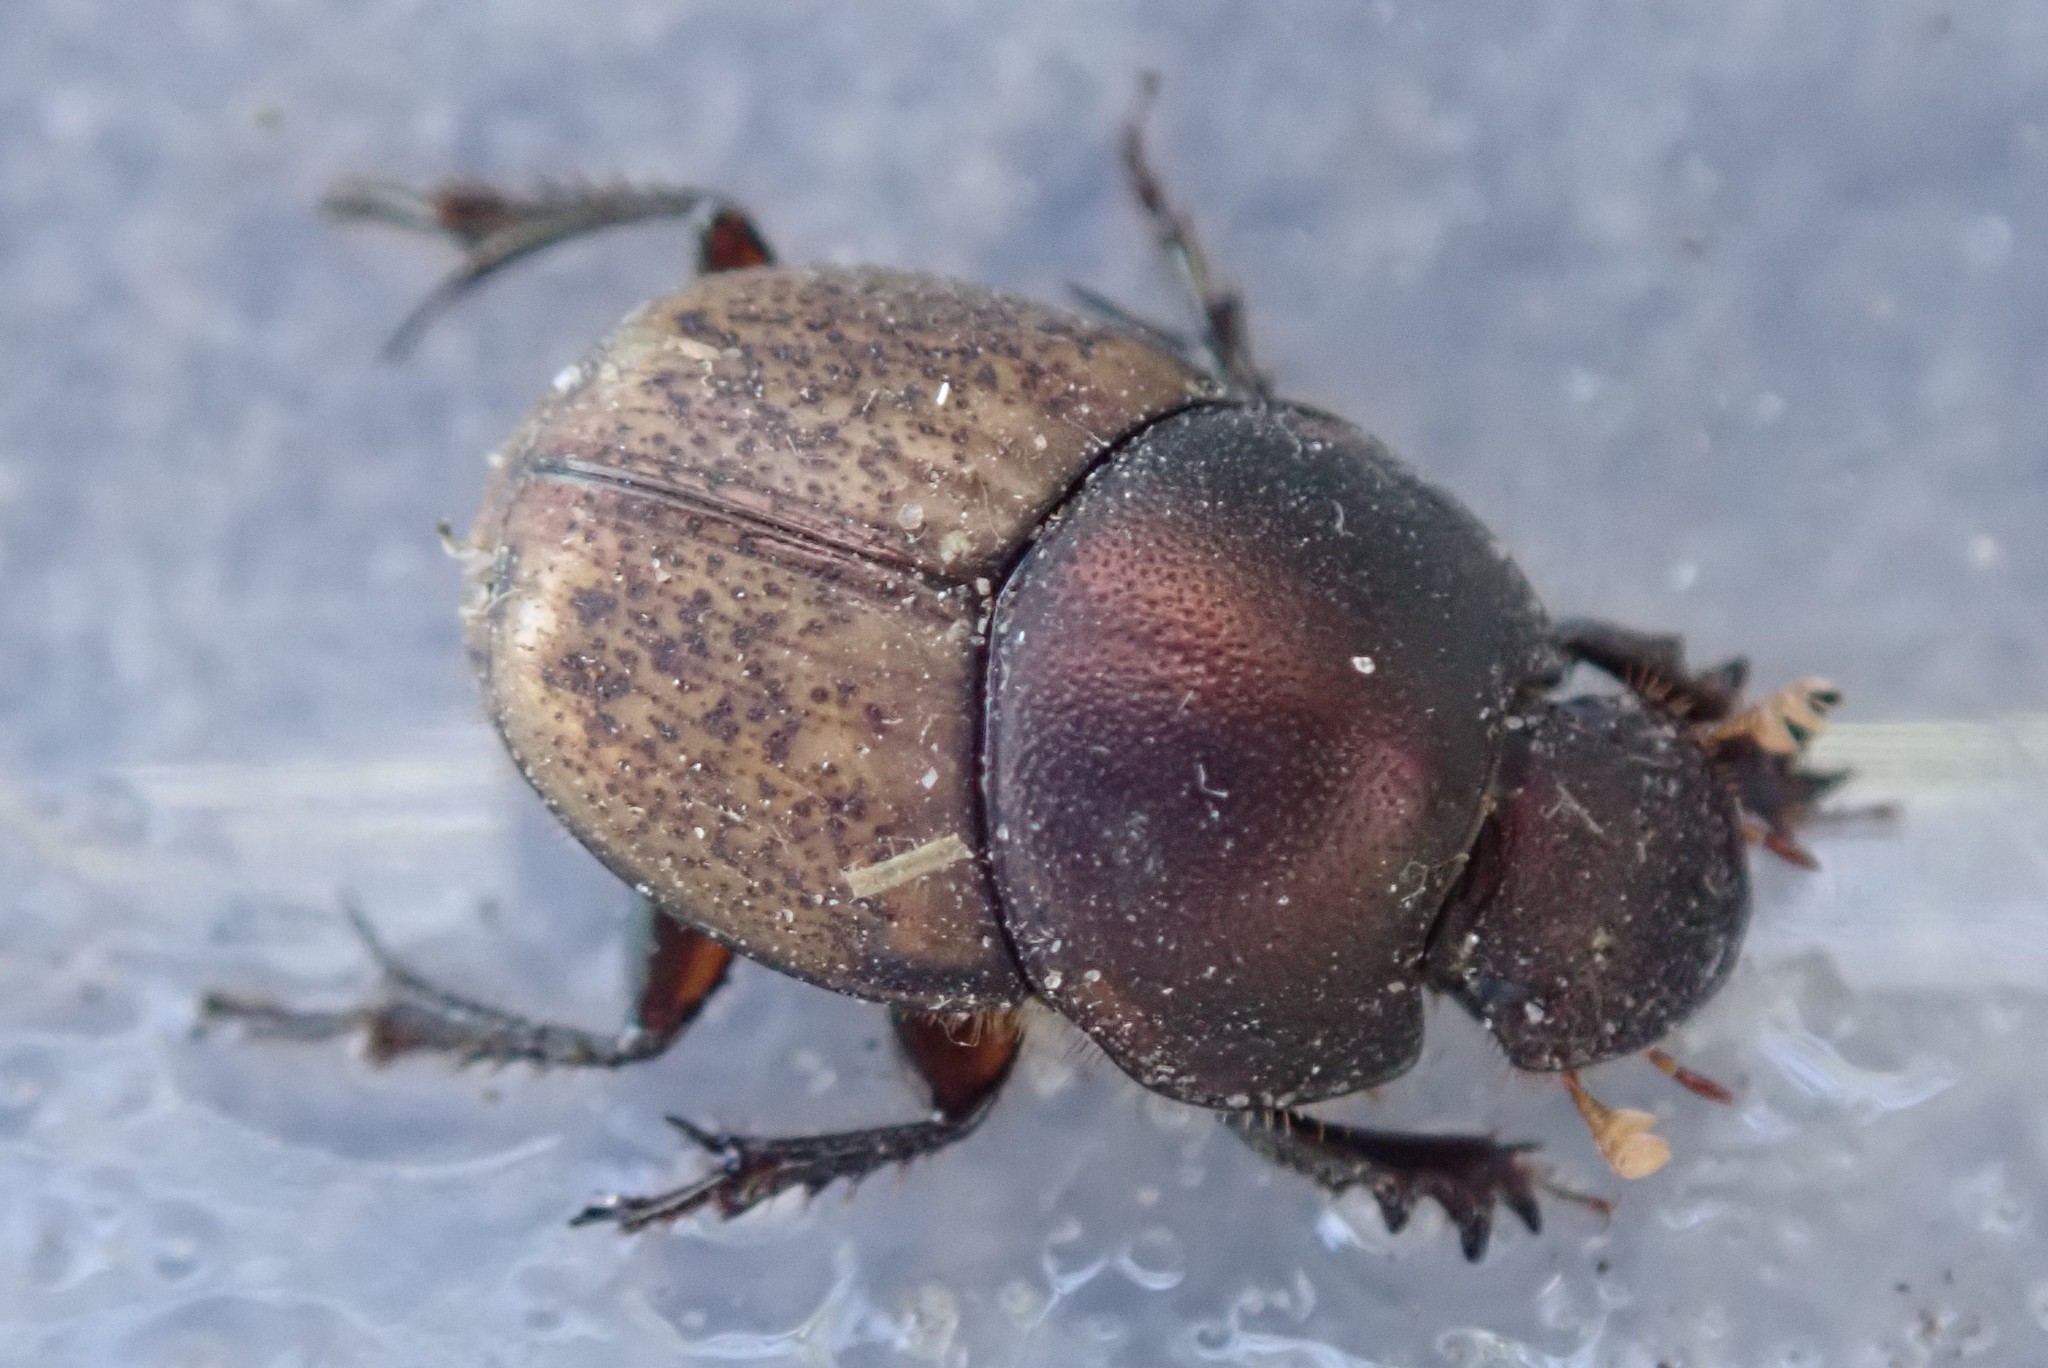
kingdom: Animalia
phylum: Arthropoda
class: Insecta
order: Coleoptera
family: Scarabaeidae
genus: Onthophagus
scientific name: Onthophagus plebejus
